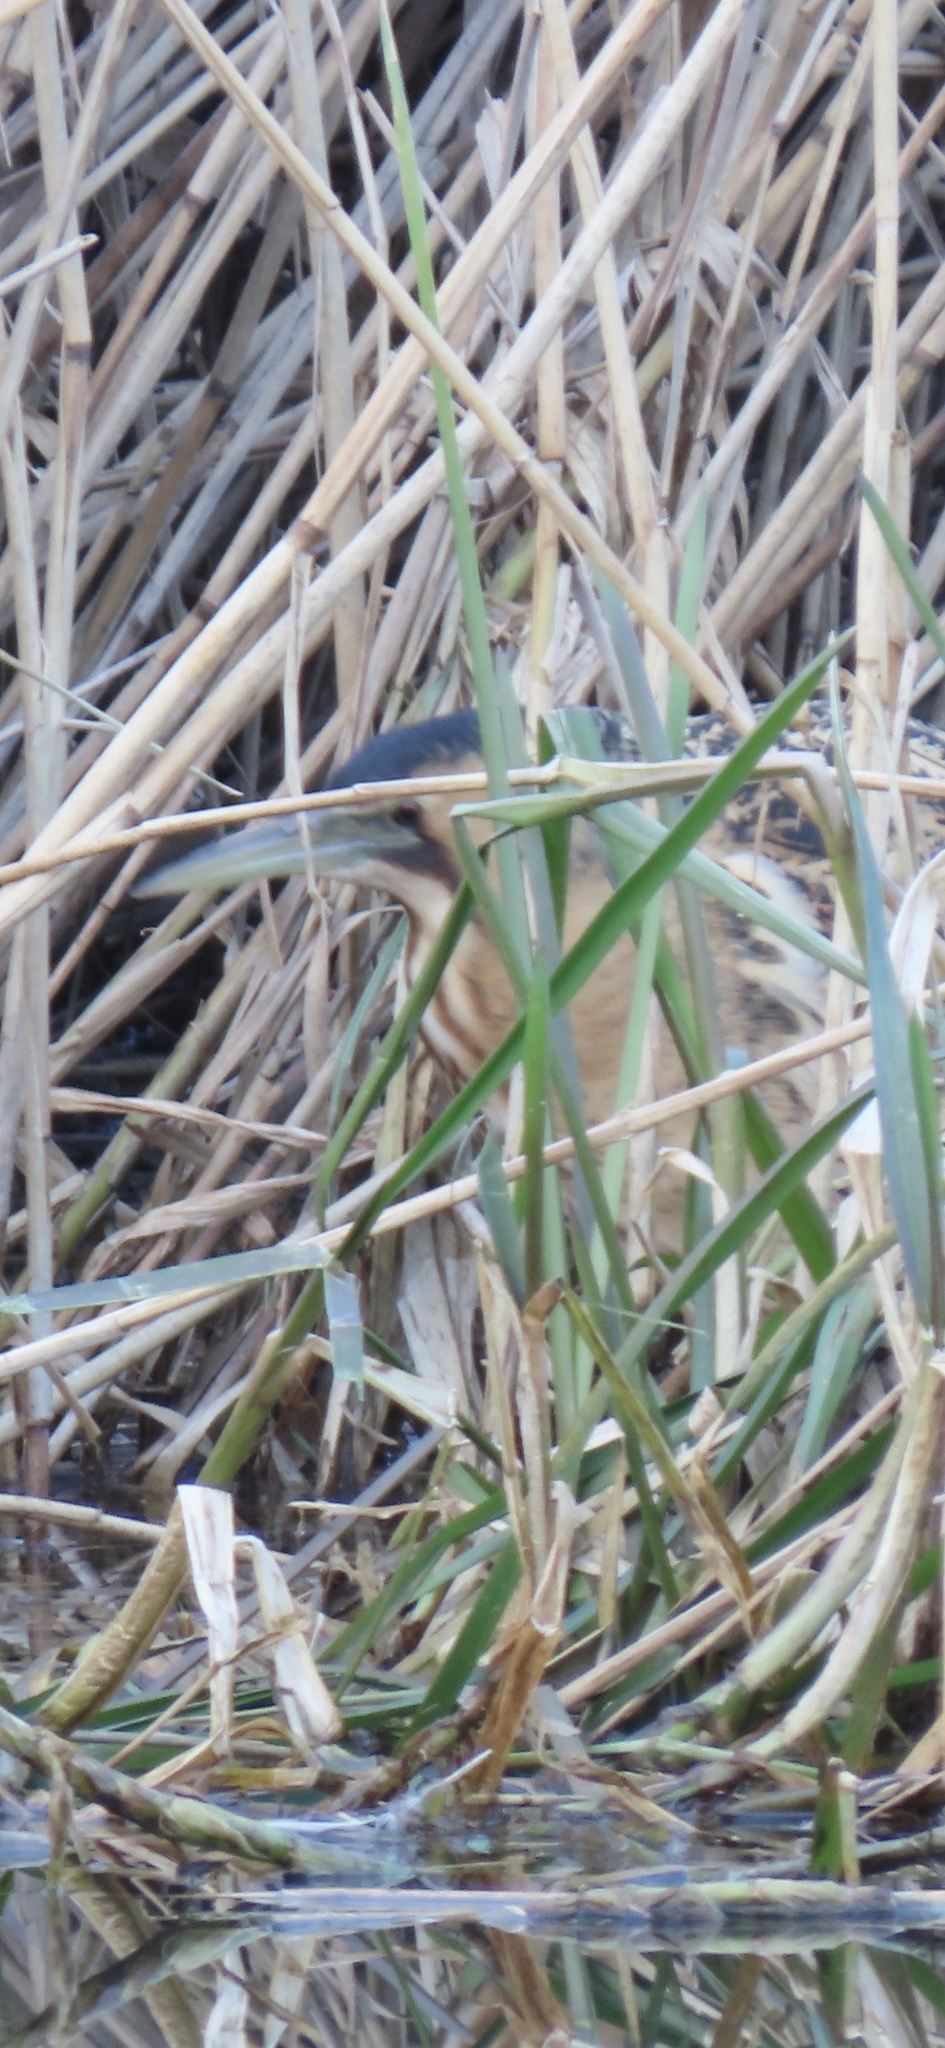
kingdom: Animalia
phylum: Chordata
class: Aves
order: Pelecaniformes
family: Ardeidae
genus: Botaurus
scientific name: Botaurus stellaris
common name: Eurasian bittern
